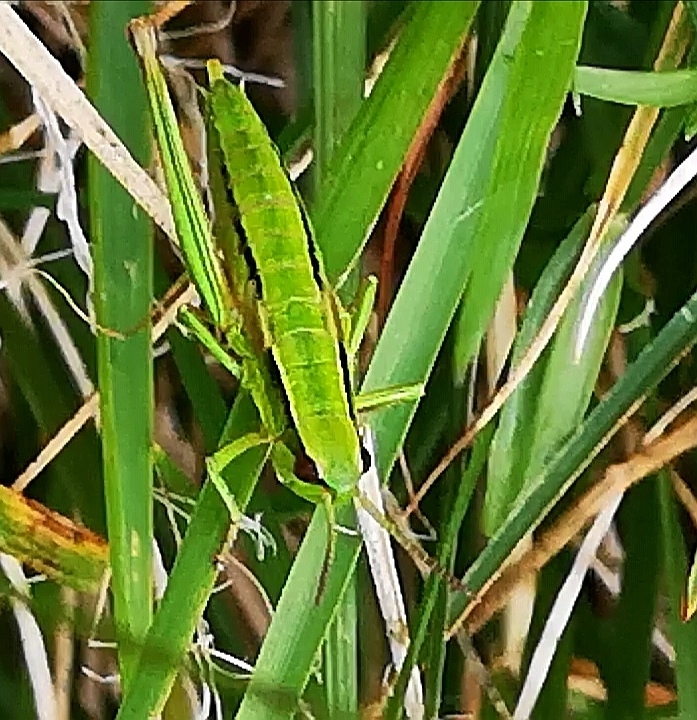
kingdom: Animalia
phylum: Arthropoda
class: Insecta
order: Orthoptera
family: Acrididae
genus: Euthystira
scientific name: Euthystira brachyptera
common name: Small gold grasshopper
